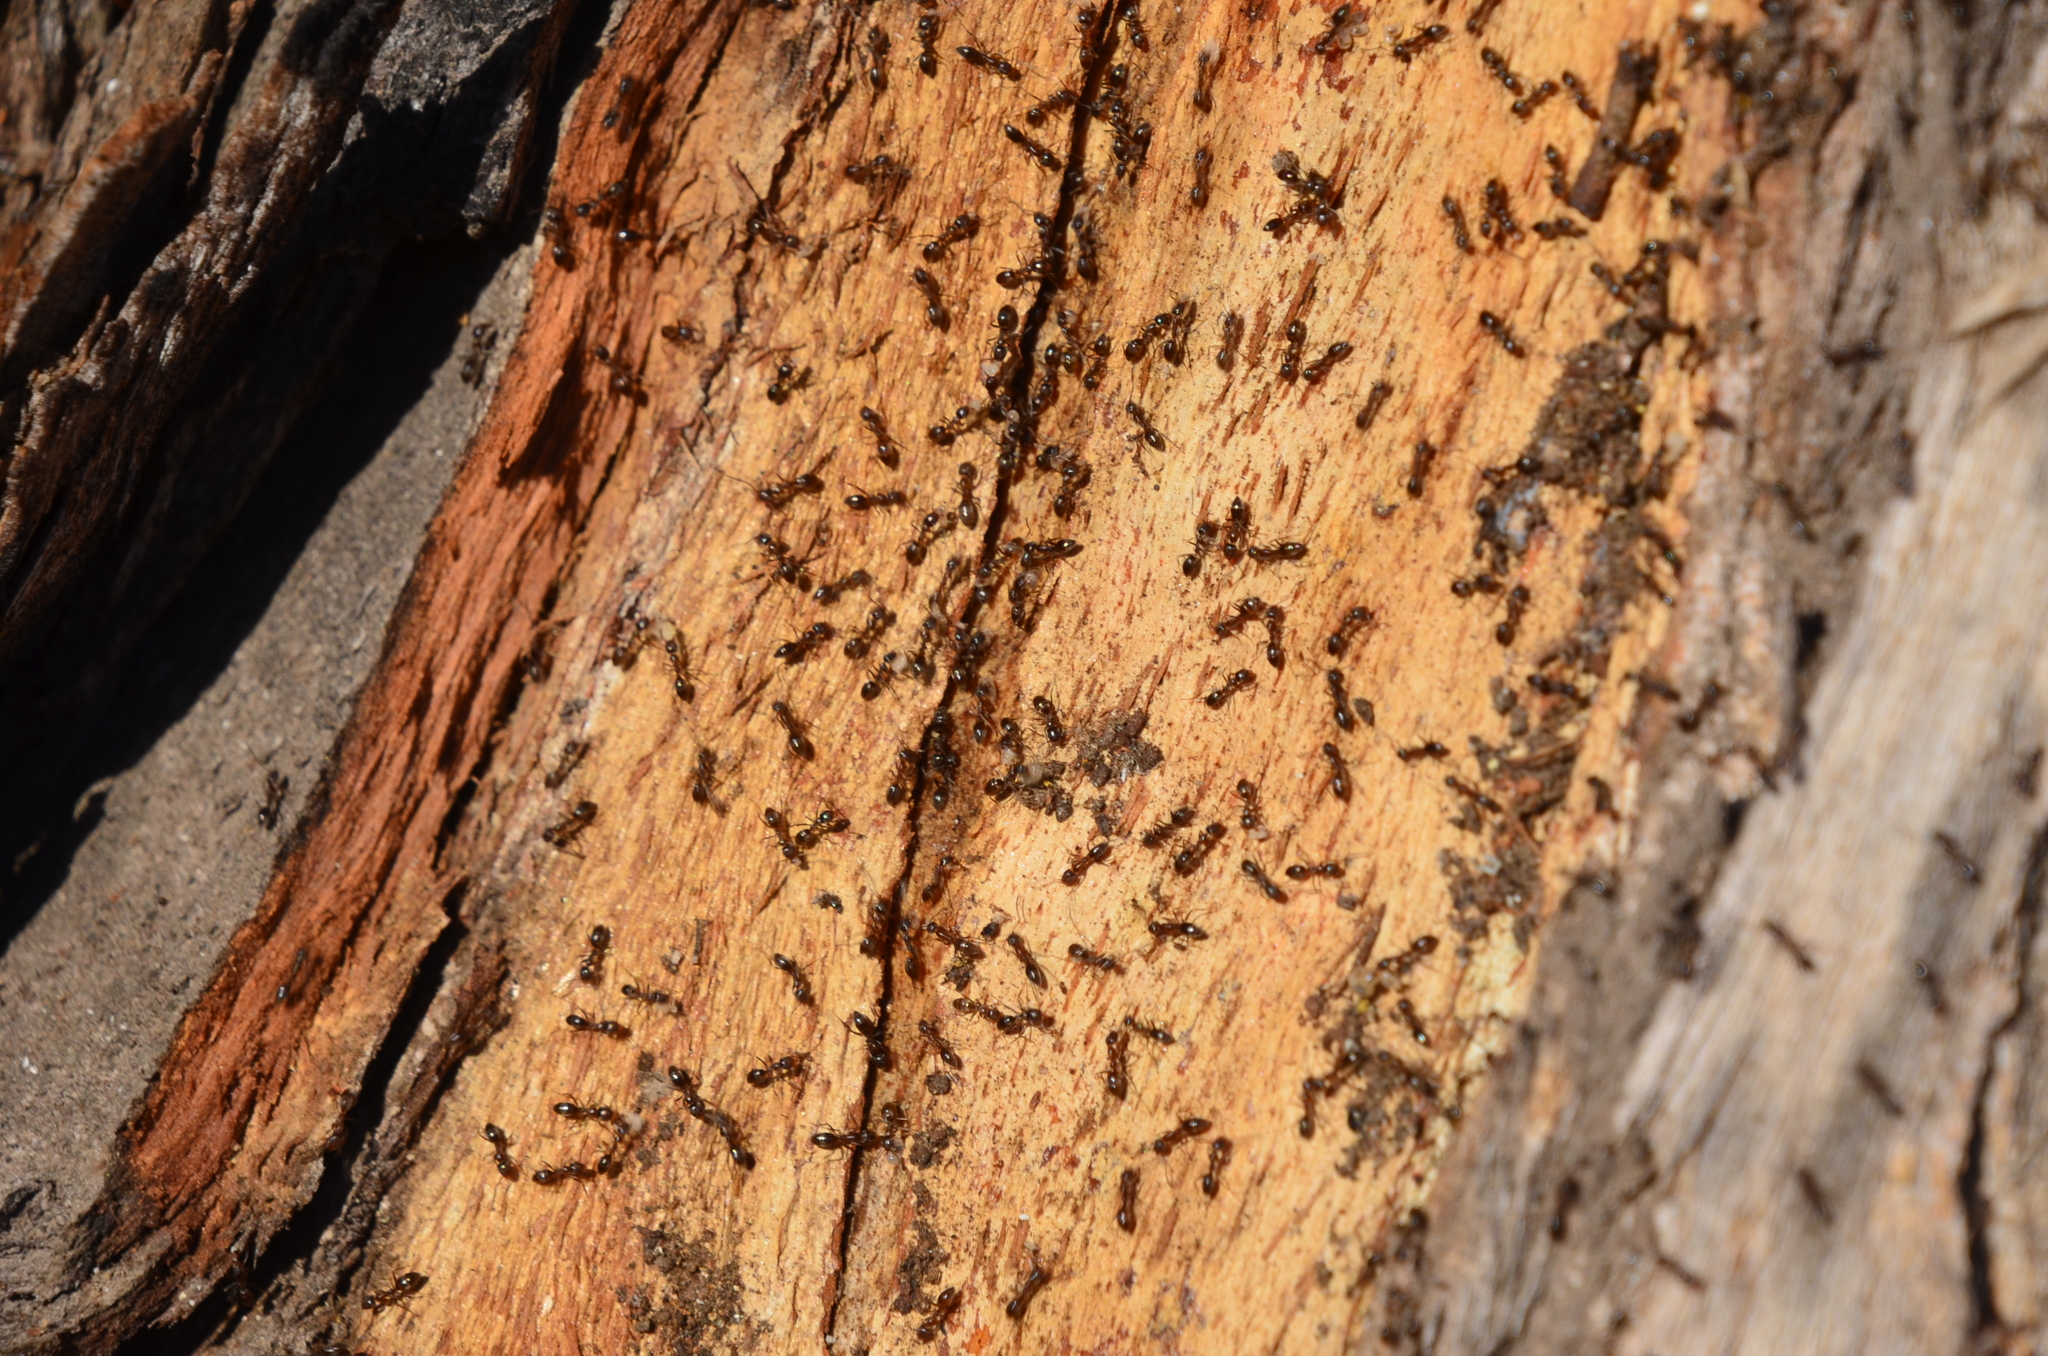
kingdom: Animalia
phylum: Arthropoda
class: Insecta
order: Hymenoptera
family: Formicidae
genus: Linepithema
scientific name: Linepithema humile
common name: Argentine ant
